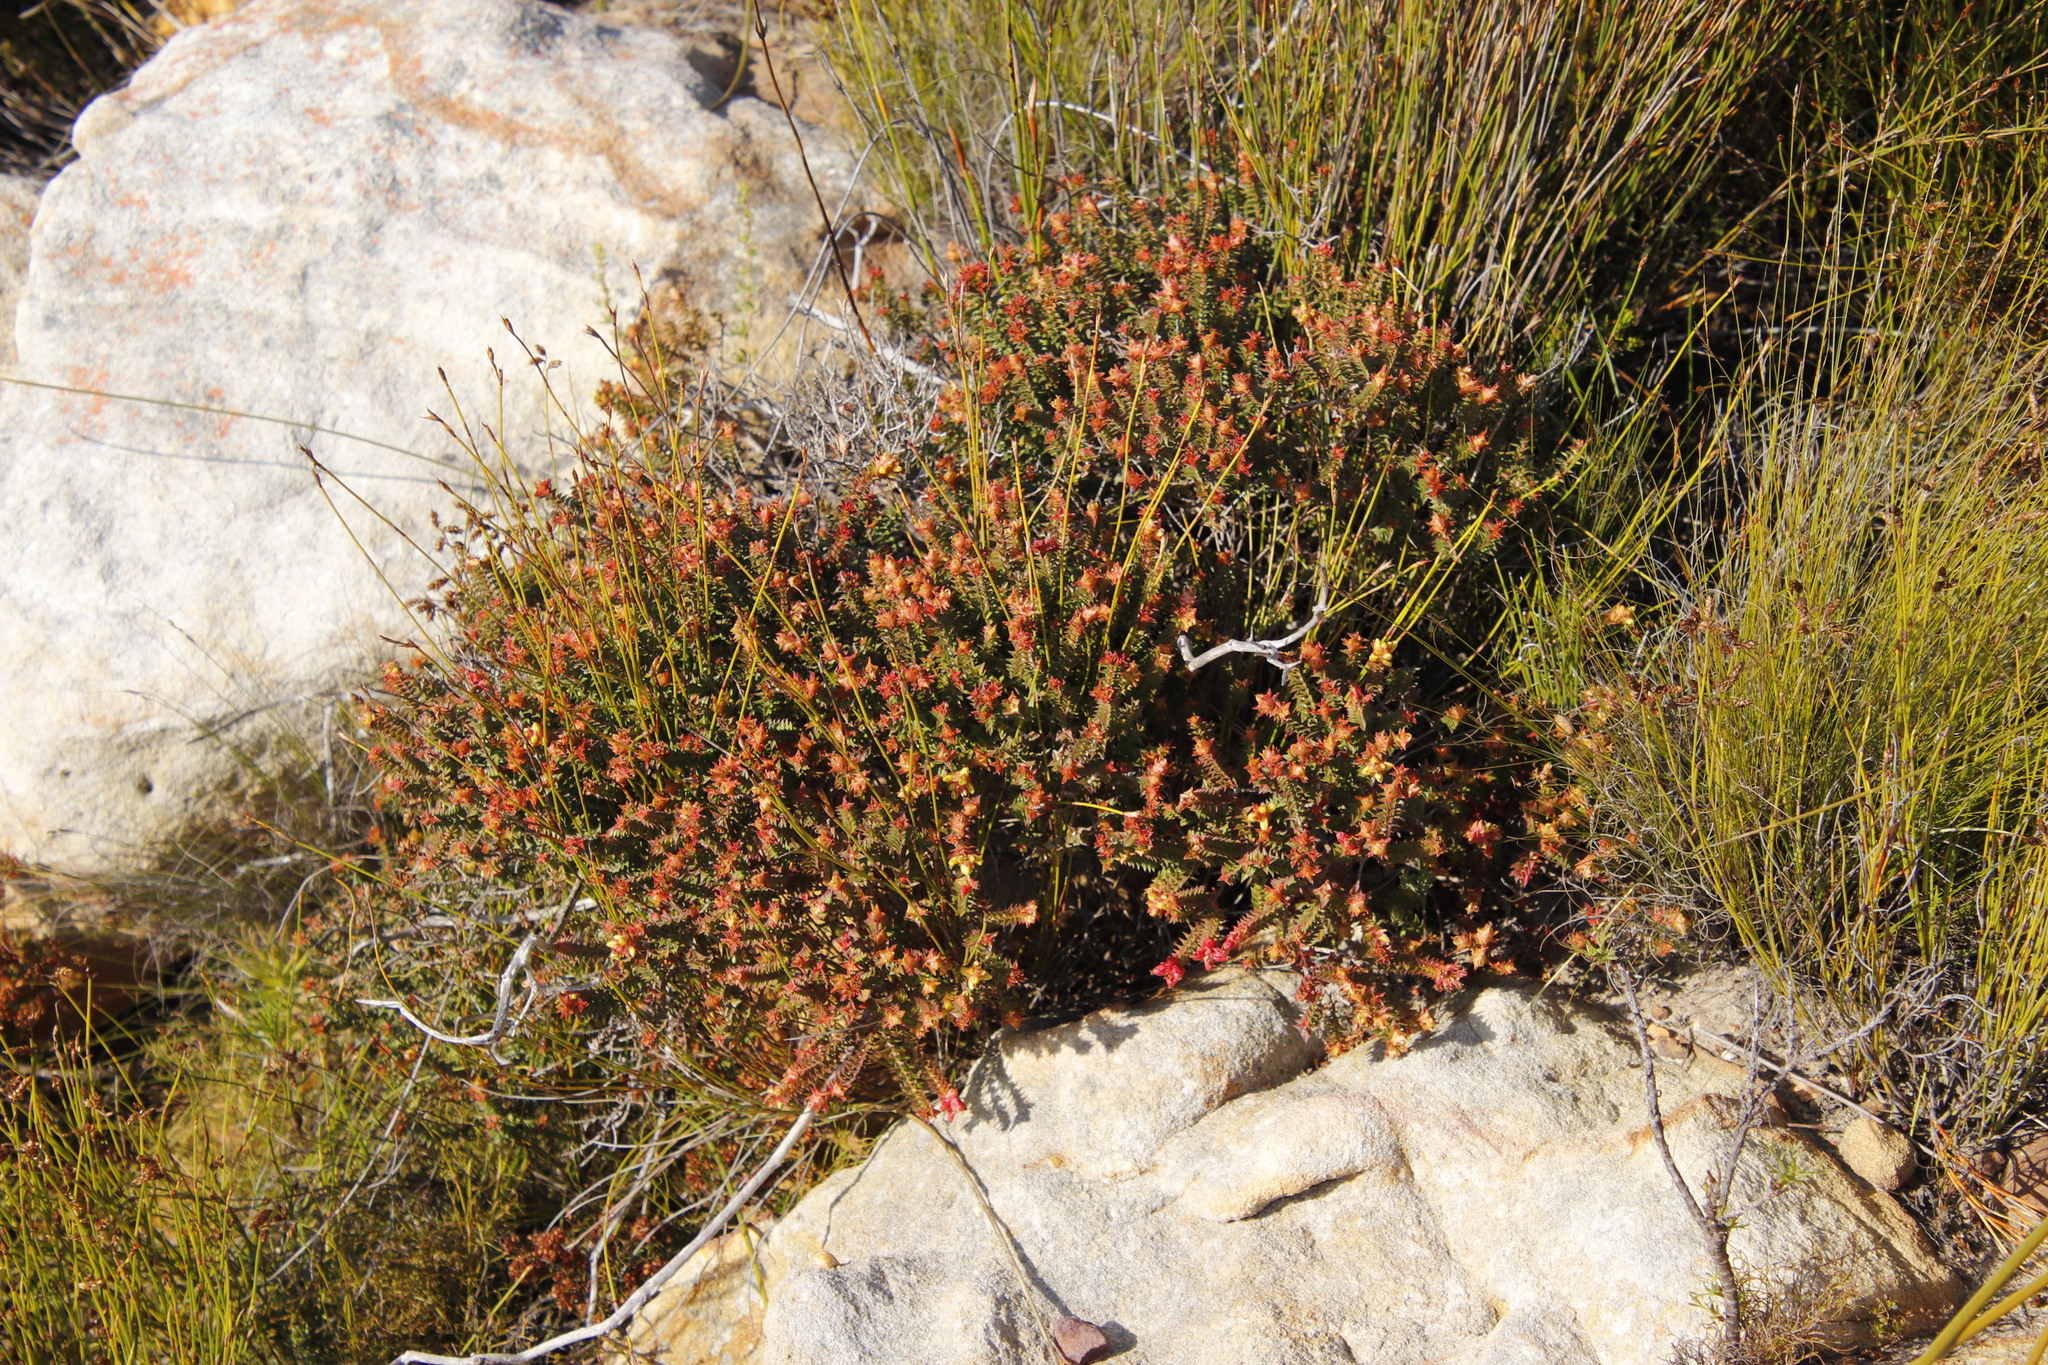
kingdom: Plantae
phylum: Tracheophyta
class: Magnoliopsida
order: Myrtales
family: Penaeaceae
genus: Penaea
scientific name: Penaea mucronata
